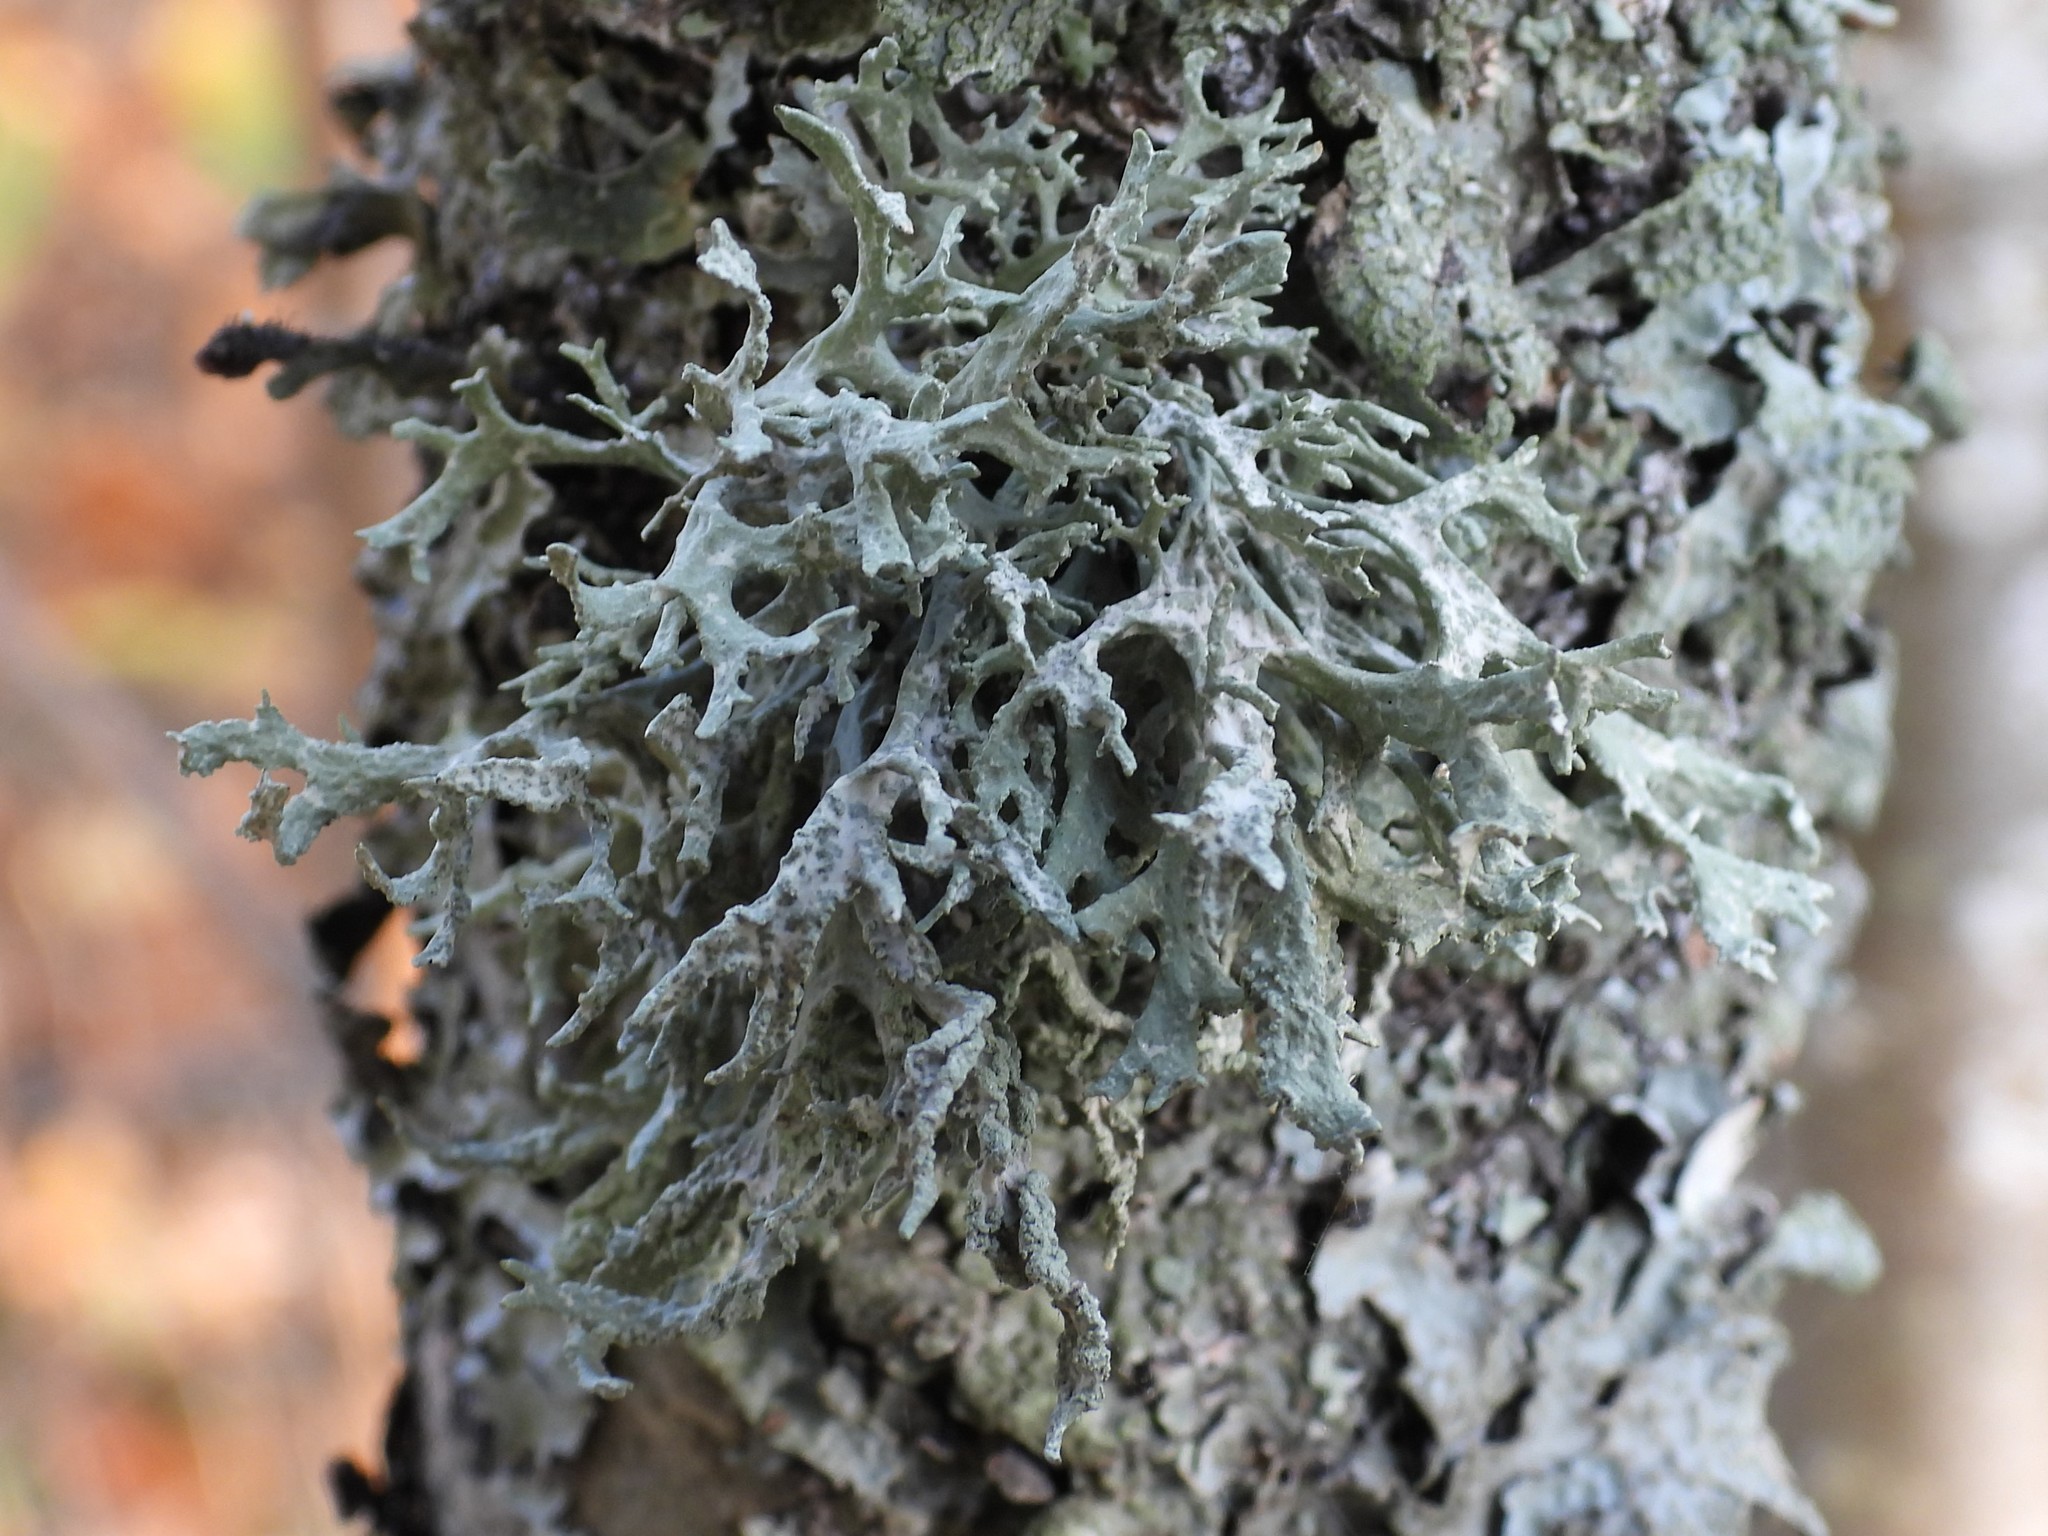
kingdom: Fungi
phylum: Ascomycota
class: Lecanoromycetes
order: Lecanorales
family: Parmeliaceae
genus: Evernia
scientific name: Evernia prunastri
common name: Oak moss
